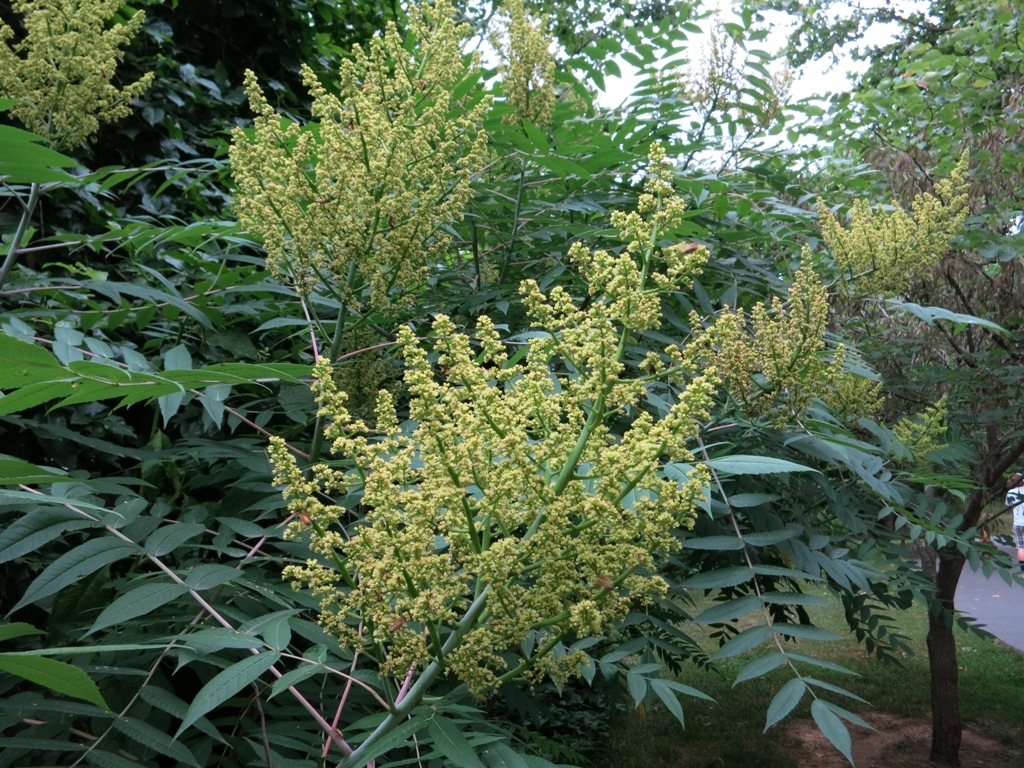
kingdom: Plantae
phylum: Tracheophyta
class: Magnoliopsida
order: Sapindales
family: Anacardiaceae
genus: Rhus
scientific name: Rhus glabra
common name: Scarlet sumac
